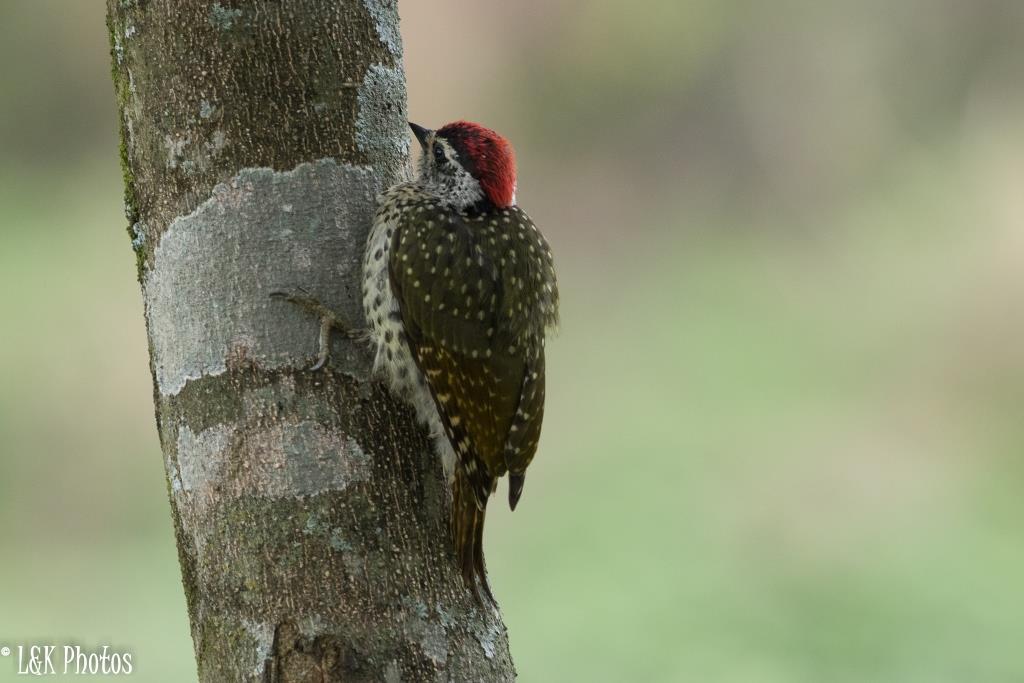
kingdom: Animalia
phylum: Chordata
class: Aves
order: Piciformes
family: Picidae
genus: Campethera
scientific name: Campethera maculosa
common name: Little green woodpecker
